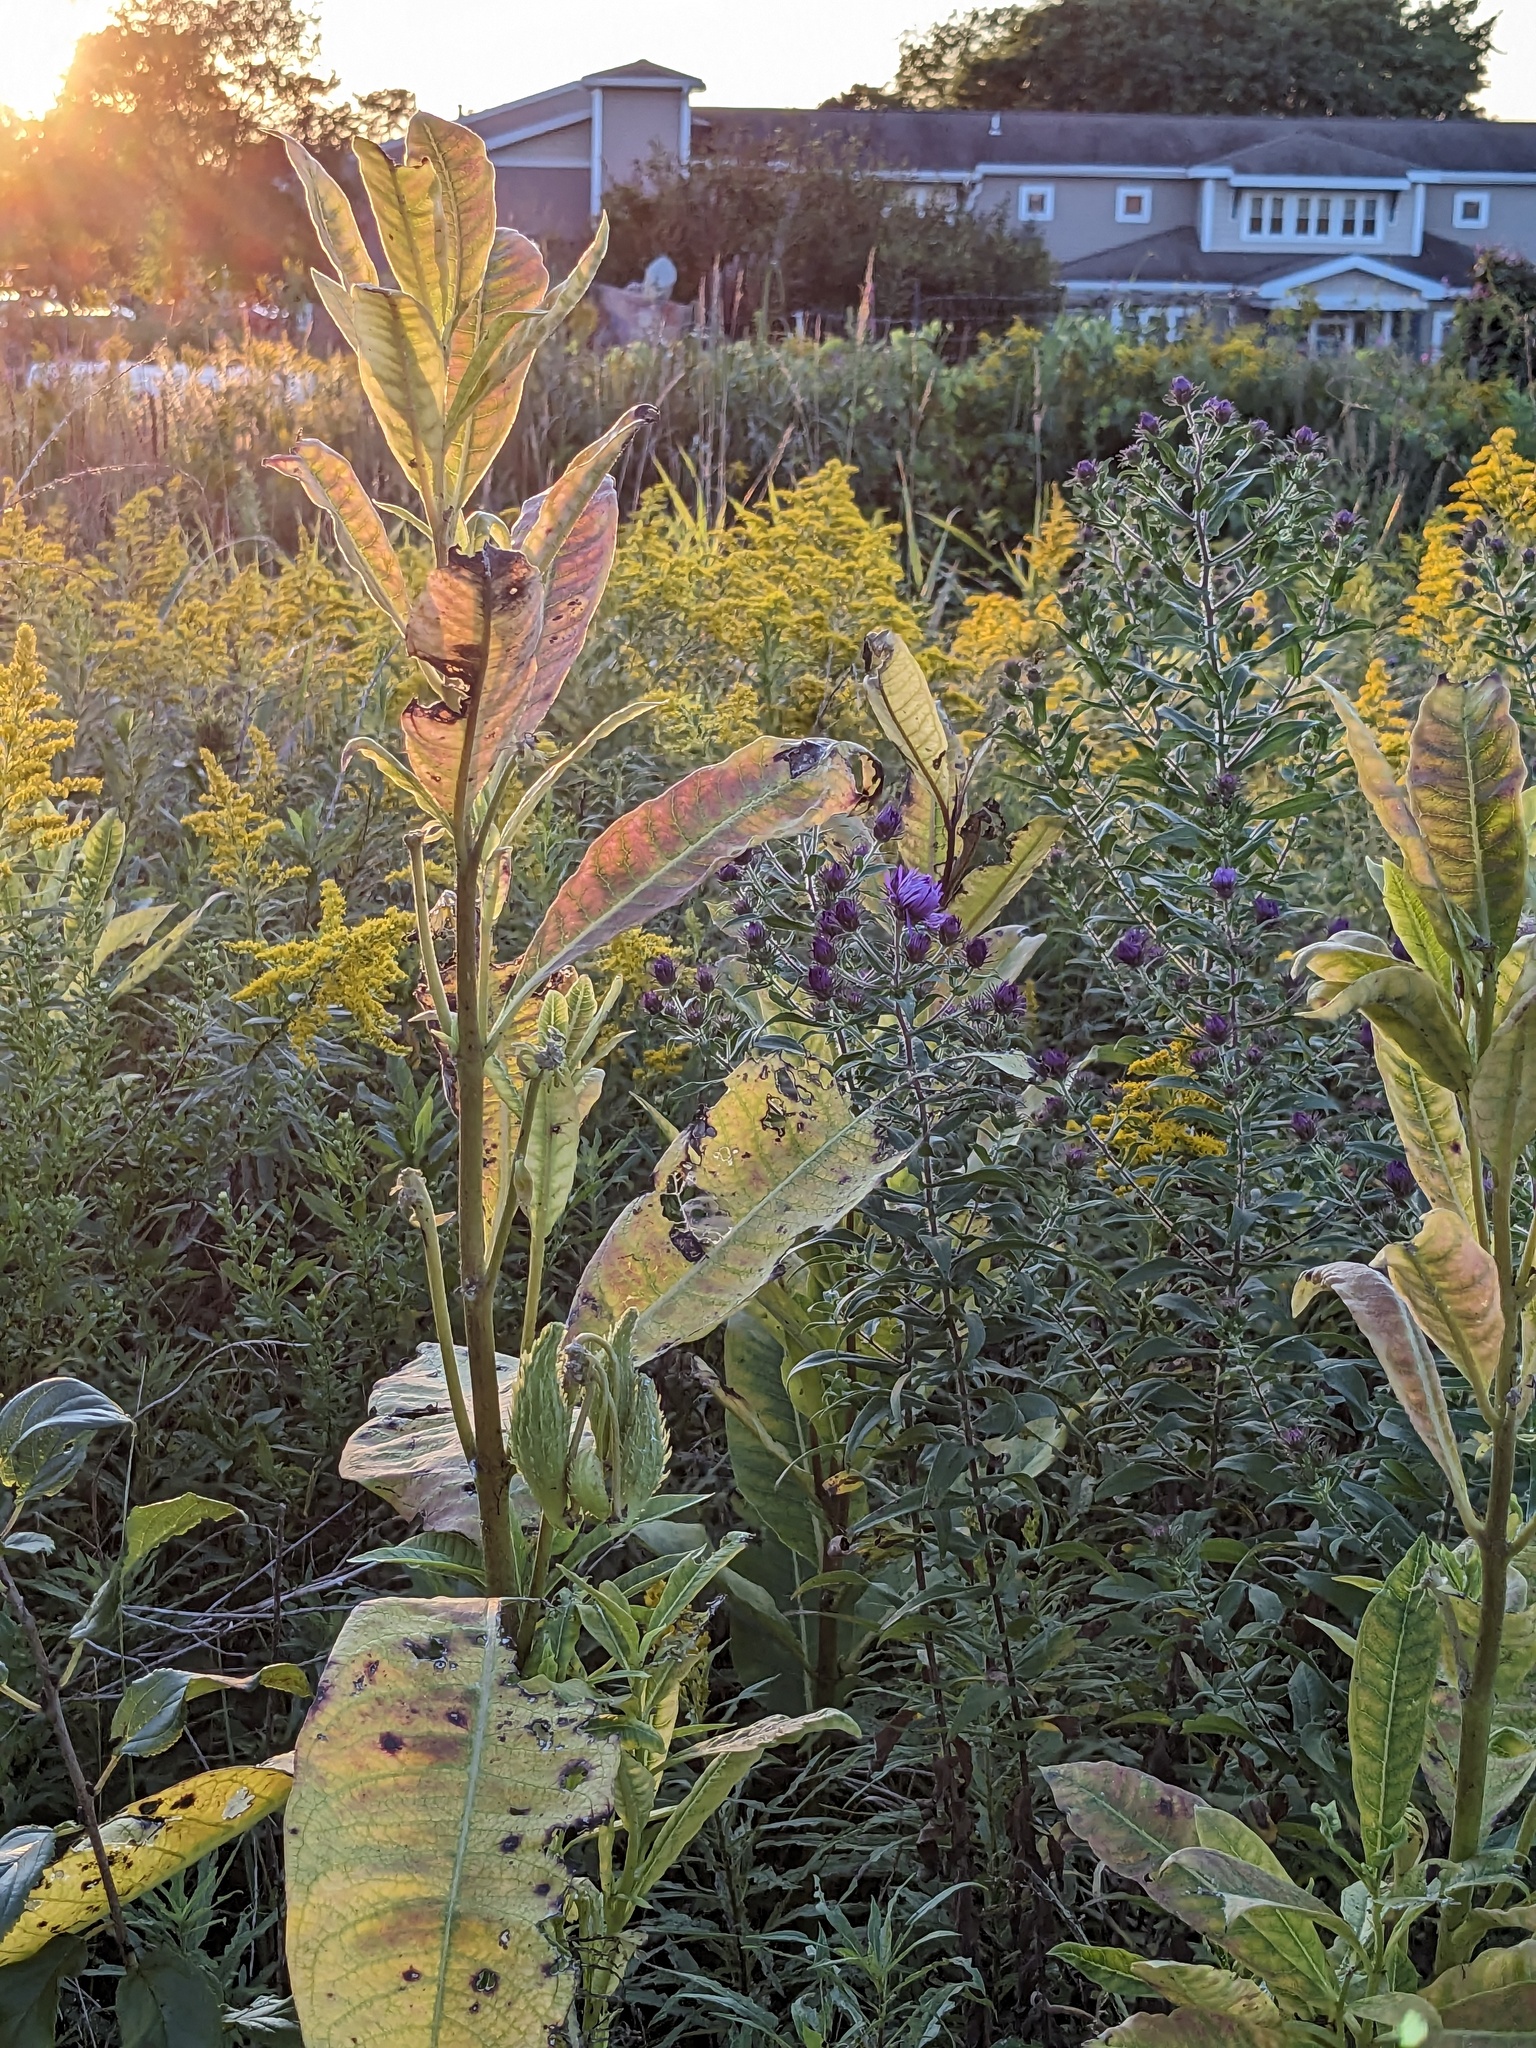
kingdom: Plantae
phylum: Tracheophyta
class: Magnoliopsida
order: Gentianales
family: Apocynaceae
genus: Asclepias
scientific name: Asclepias syriaca
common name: Common milkweed
